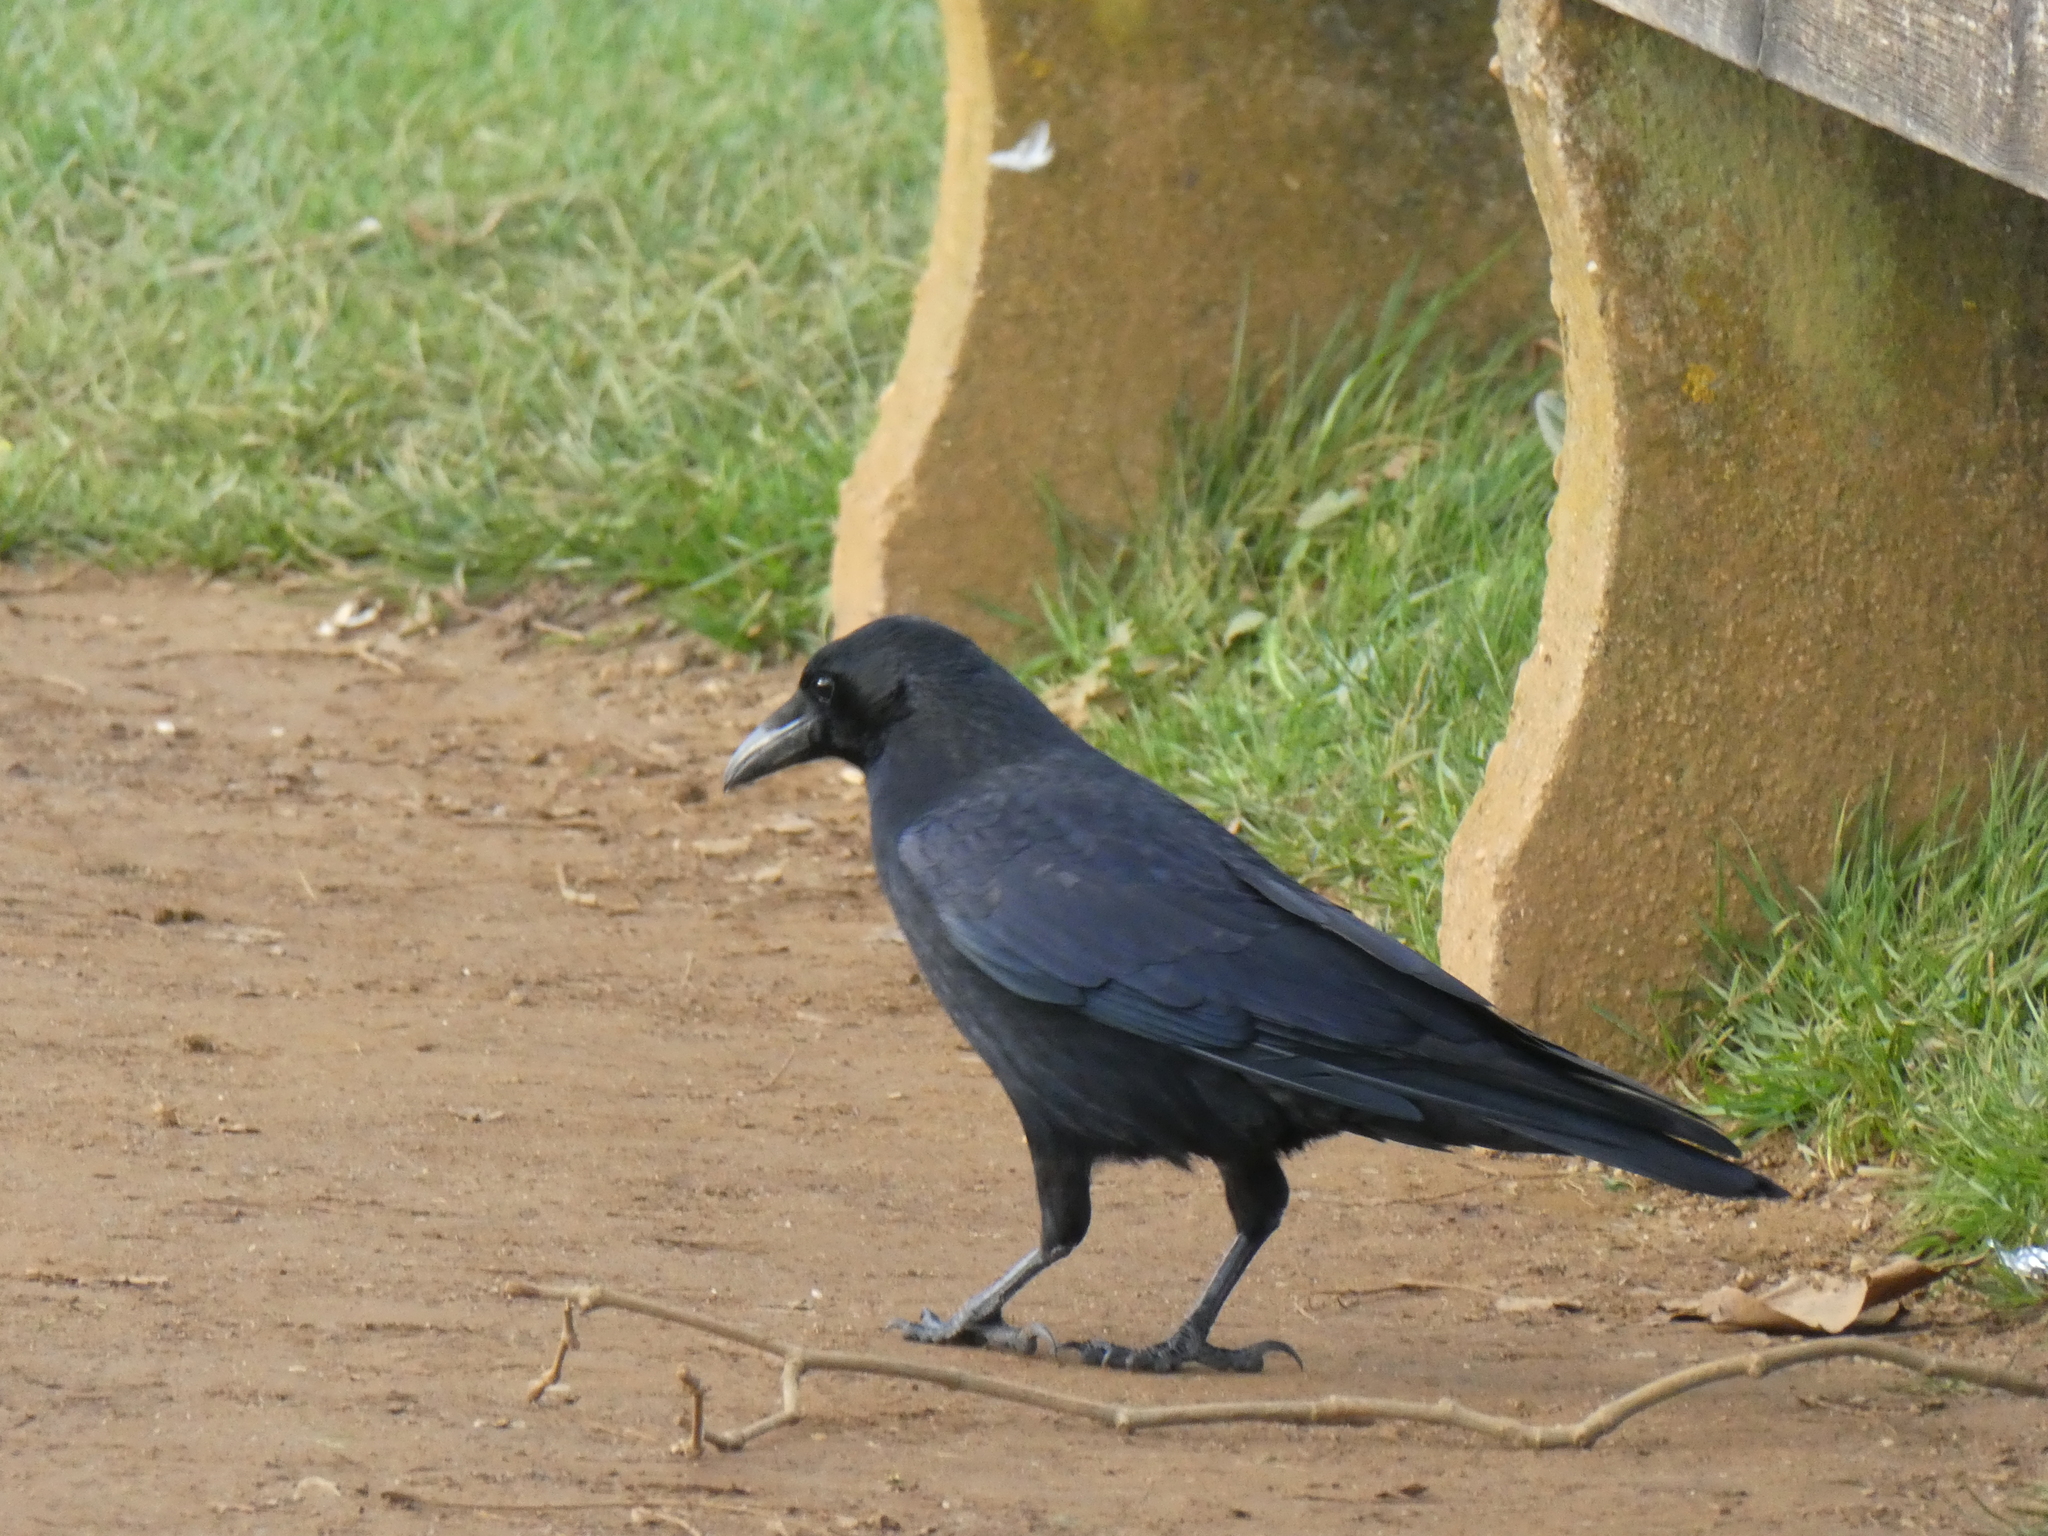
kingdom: Animalia
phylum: Chordata
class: Aves
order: Passeriformes
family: Corvidae
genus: Corvus
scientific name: Corvus corone
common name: Carrion crow
